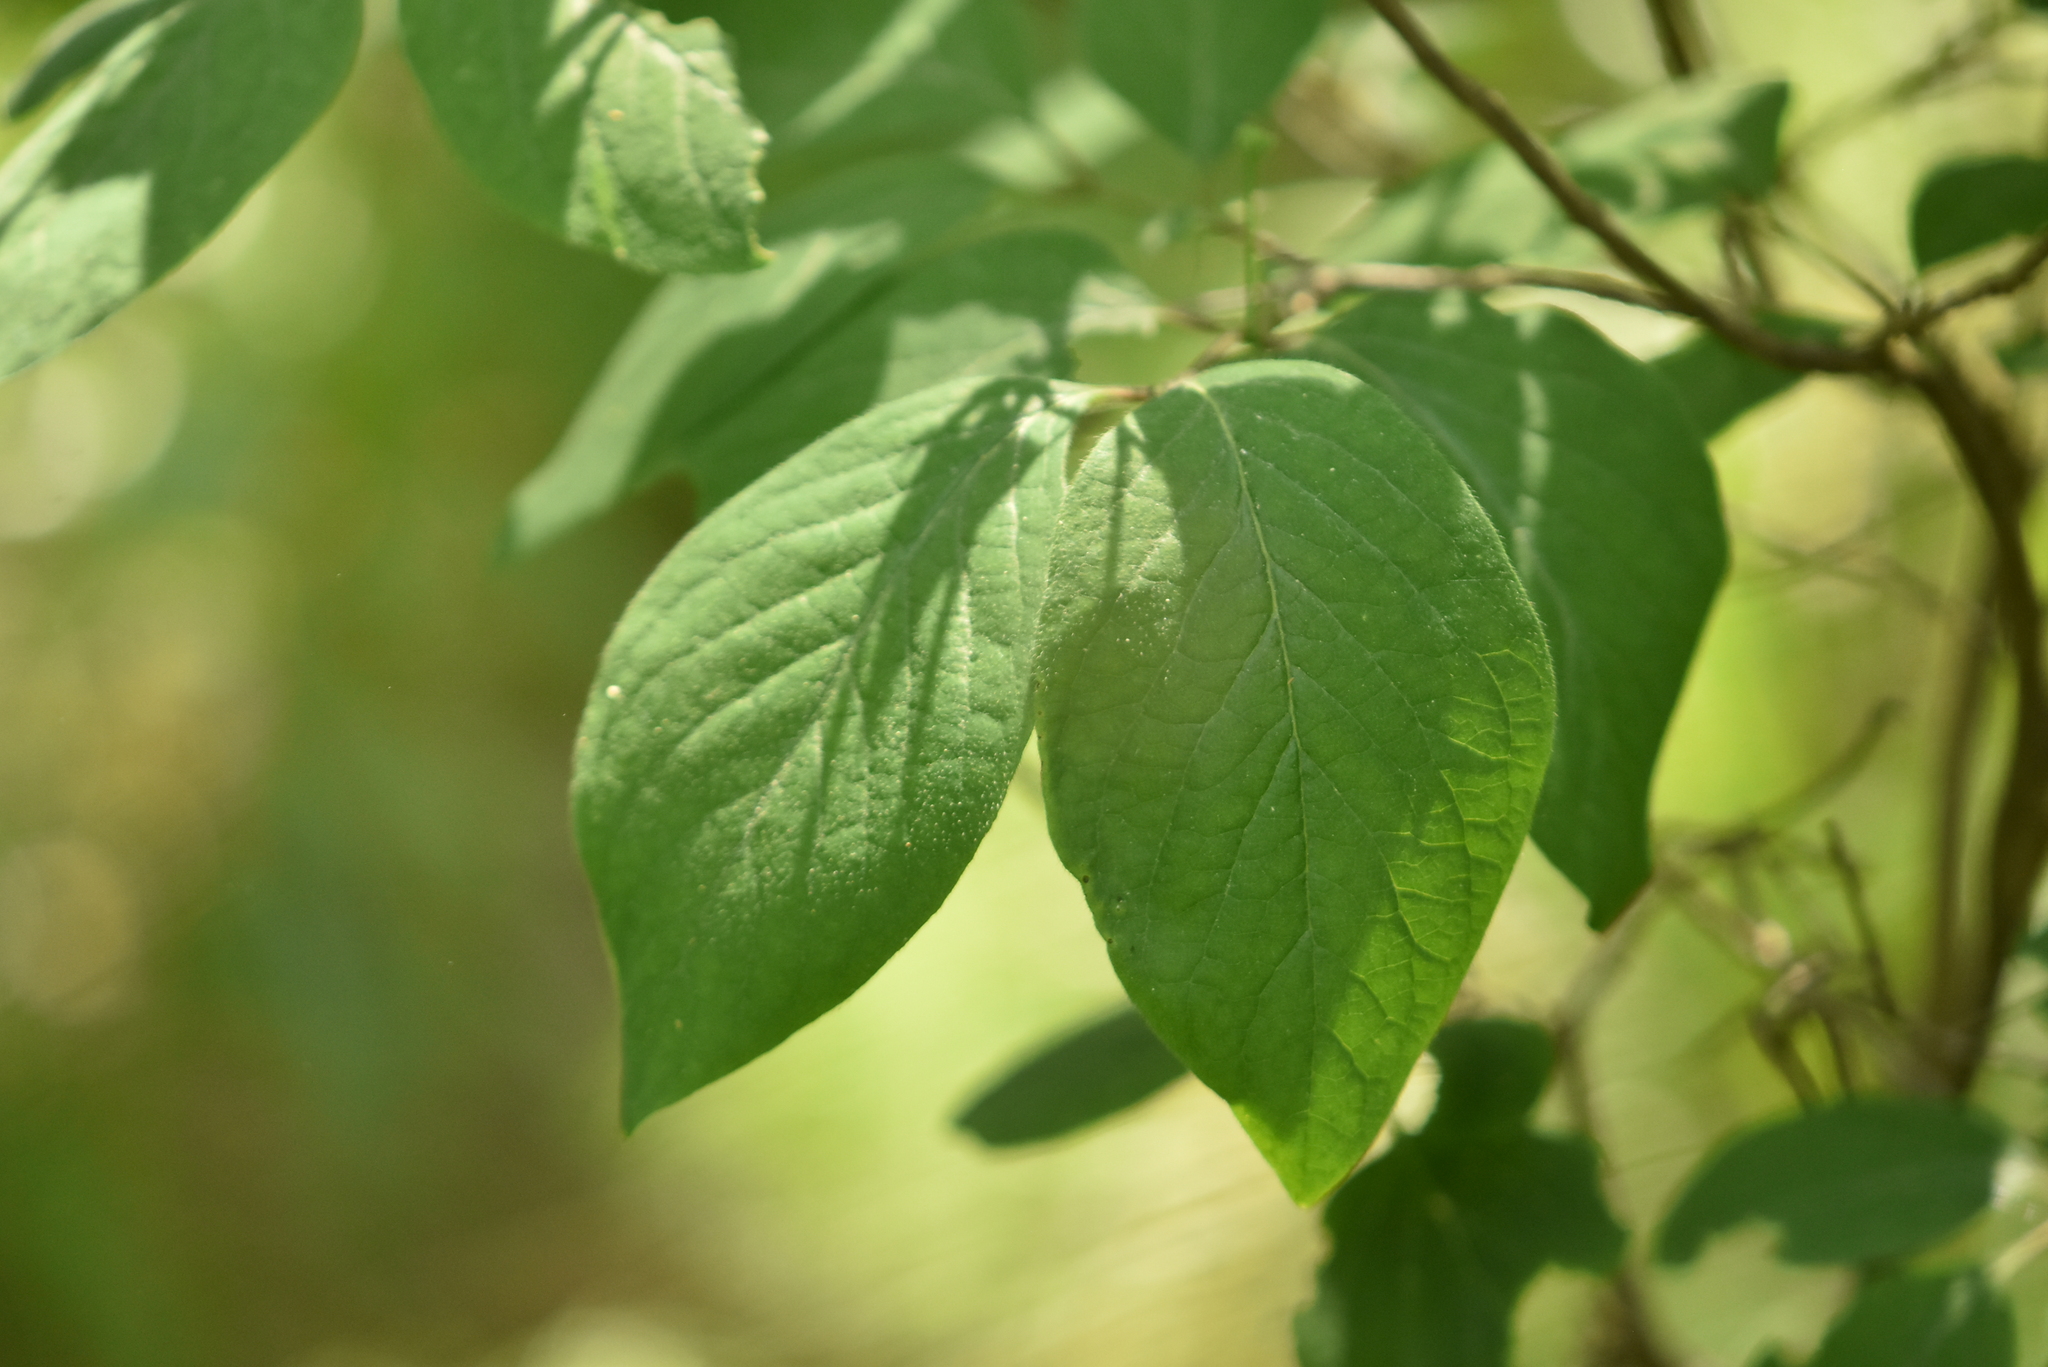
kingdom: Plantae
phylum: Tracheophyta
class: Magnoliopsida
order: Dipsacales
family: Caprifoliaceae
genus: Lonicera
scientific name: Lonicera xylosteum
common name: Fly honeysuckle
